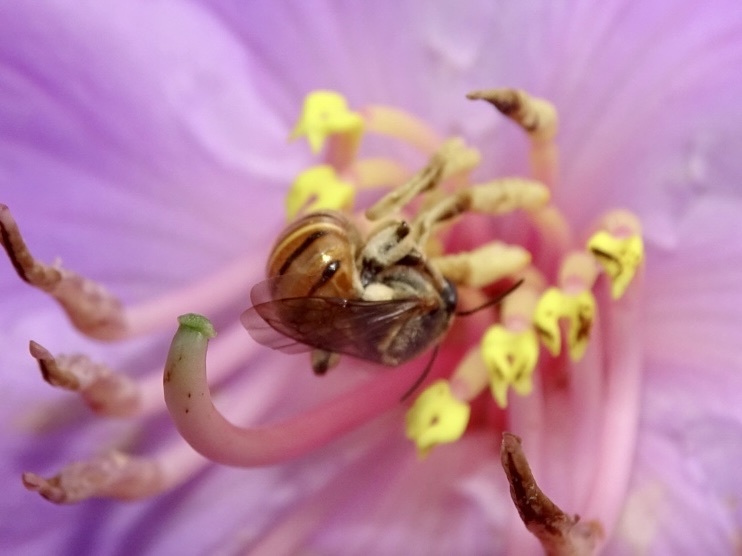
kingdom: Animalia
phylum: Arthropoda
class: Insecta
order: Hymenoptera
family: Halictidae
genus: Nomia
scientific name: Nomia penangensis
